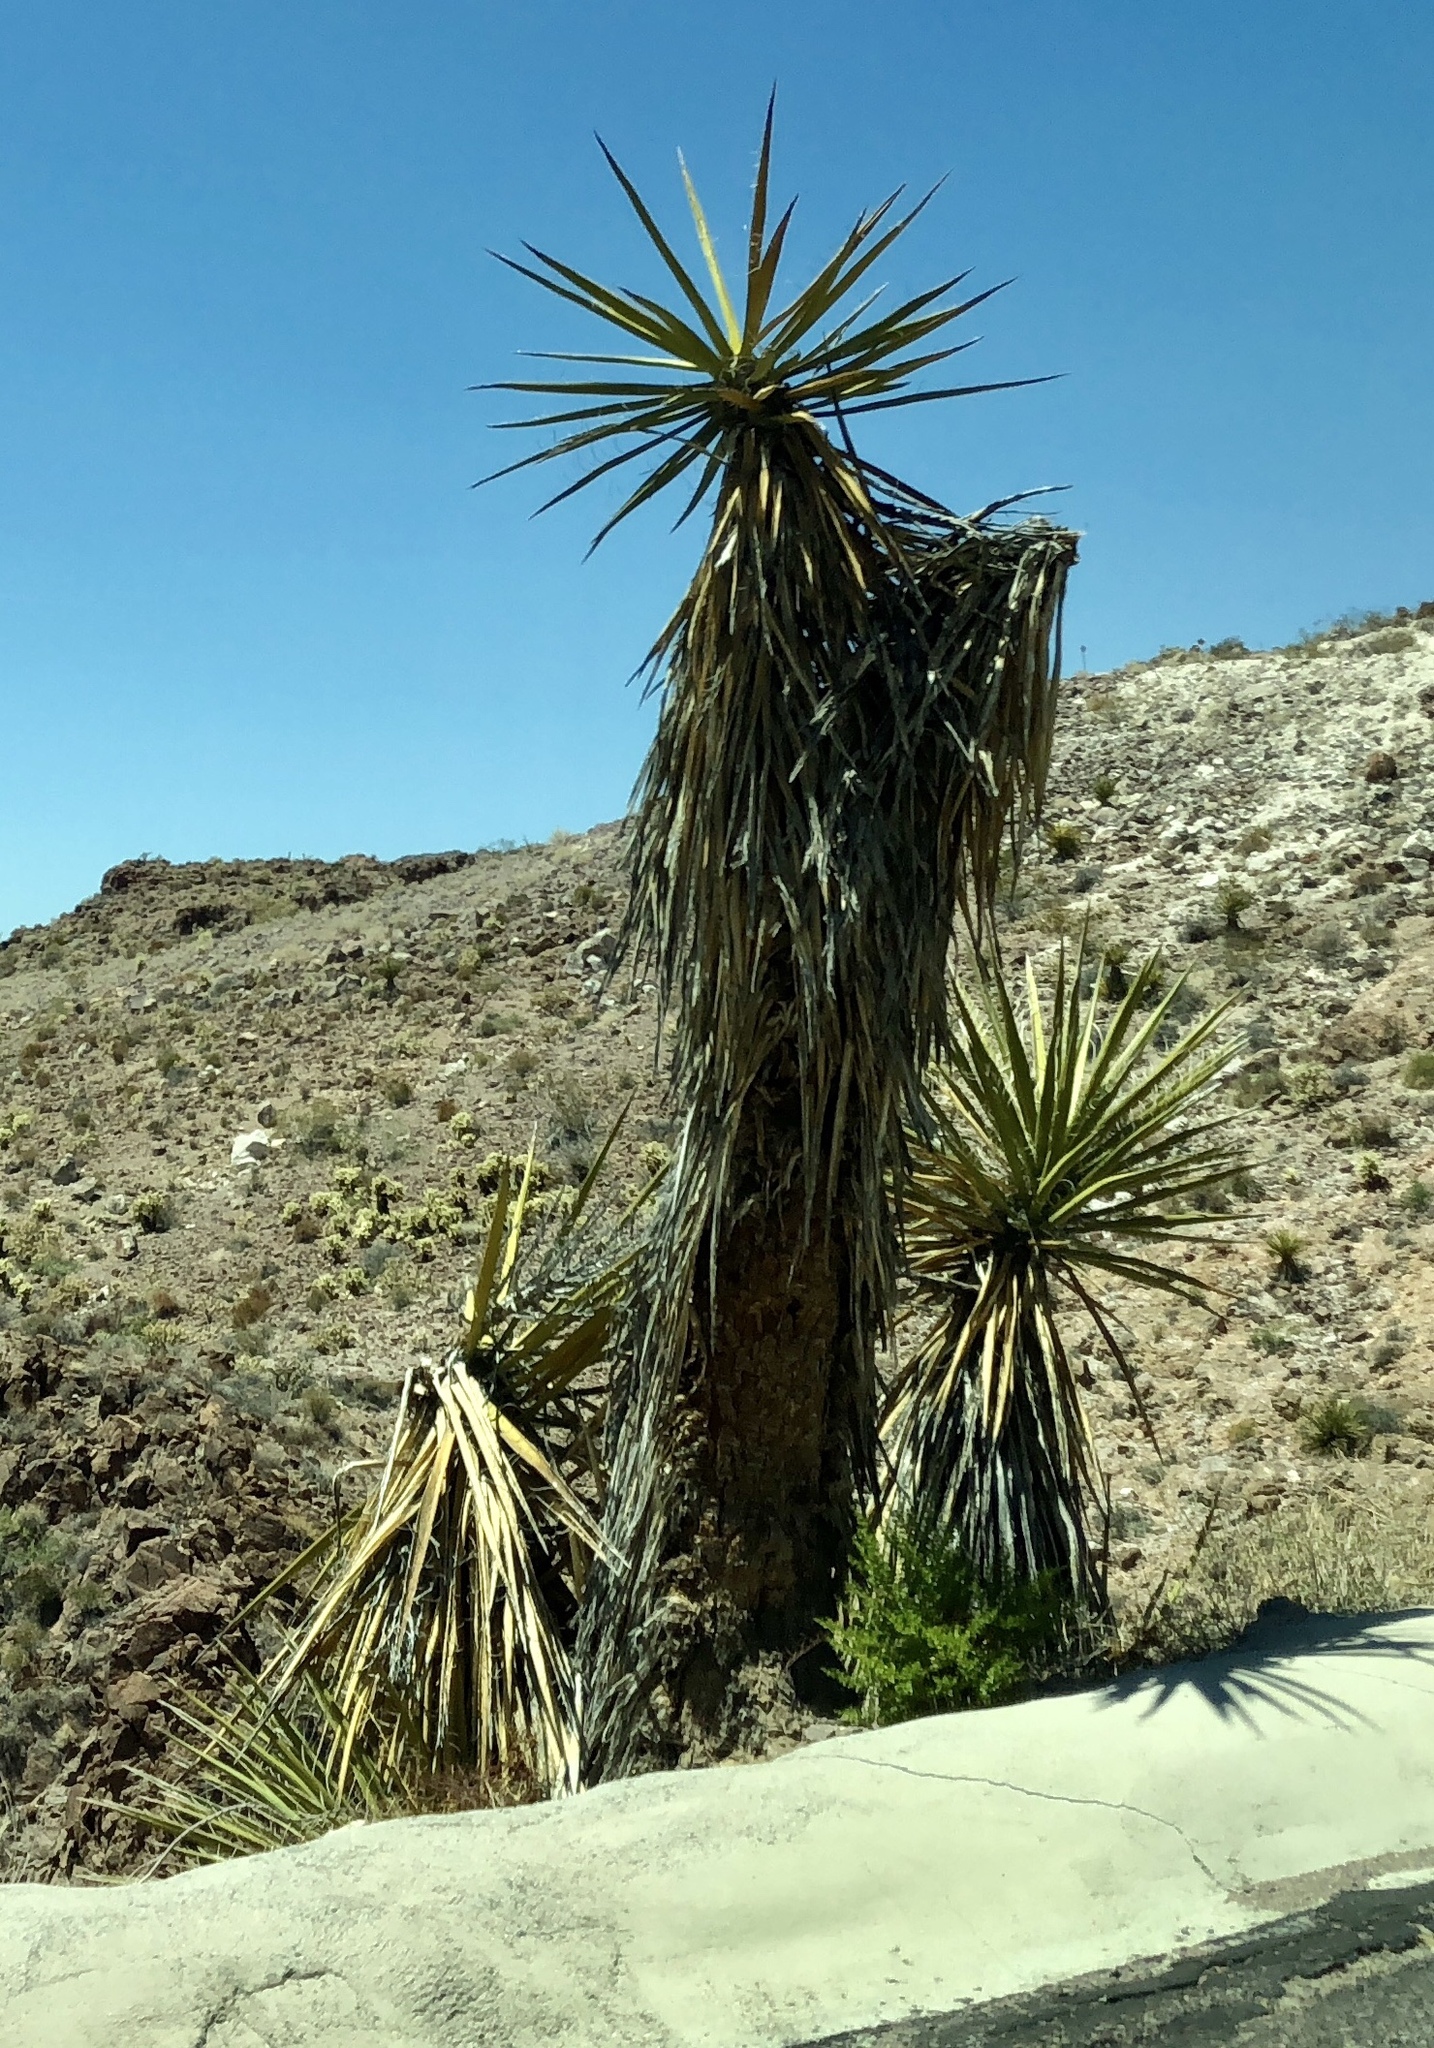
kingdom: Plantae
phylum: Tracheophyta
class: Liliopsida
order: Asparagales
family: Asparagaceae
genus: Yucca
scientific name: Yucca schidigera
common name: Mojave yucca
